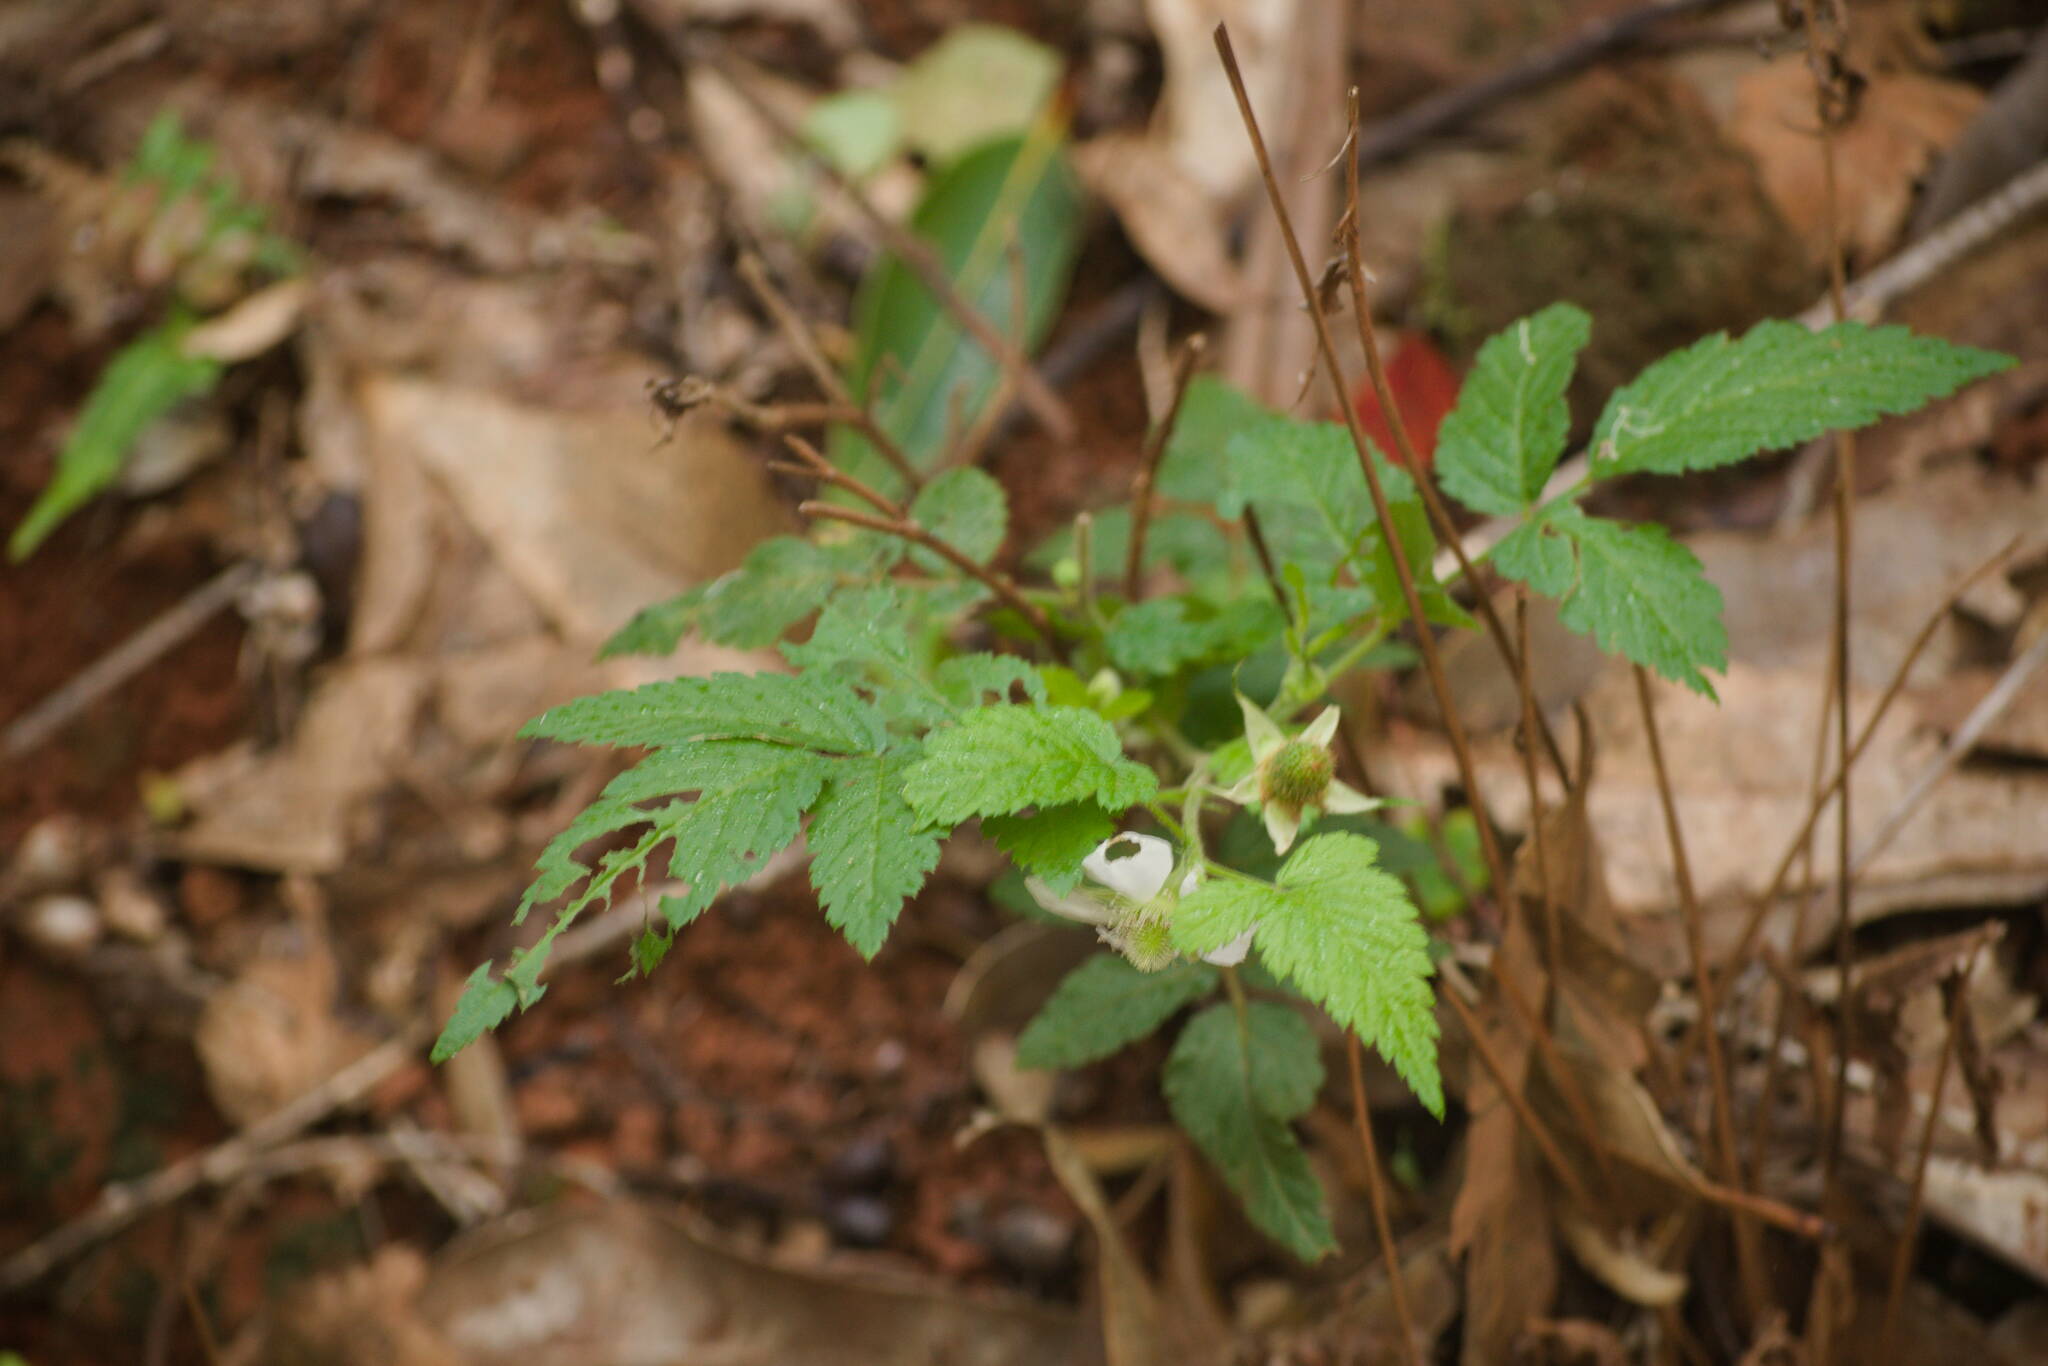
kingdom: Plantae
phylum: Tracheophyta
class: Magnoliopsida
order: Rosales
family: Rosaceae
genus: Rubus
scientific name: Rubus rosifolius
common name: Roseleaf raspberry
